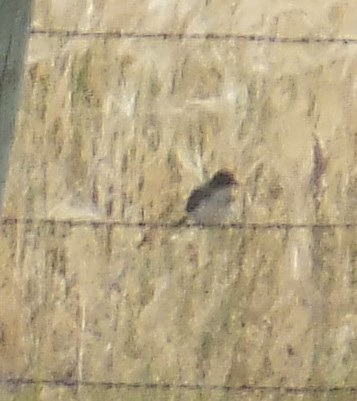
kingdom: Animalia
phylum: Chordata
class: Aves
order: Passeriformes
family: Tyrannidae
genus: Tyrannus
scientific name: Tyrannus tyrannus
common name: Eastern kingbird
